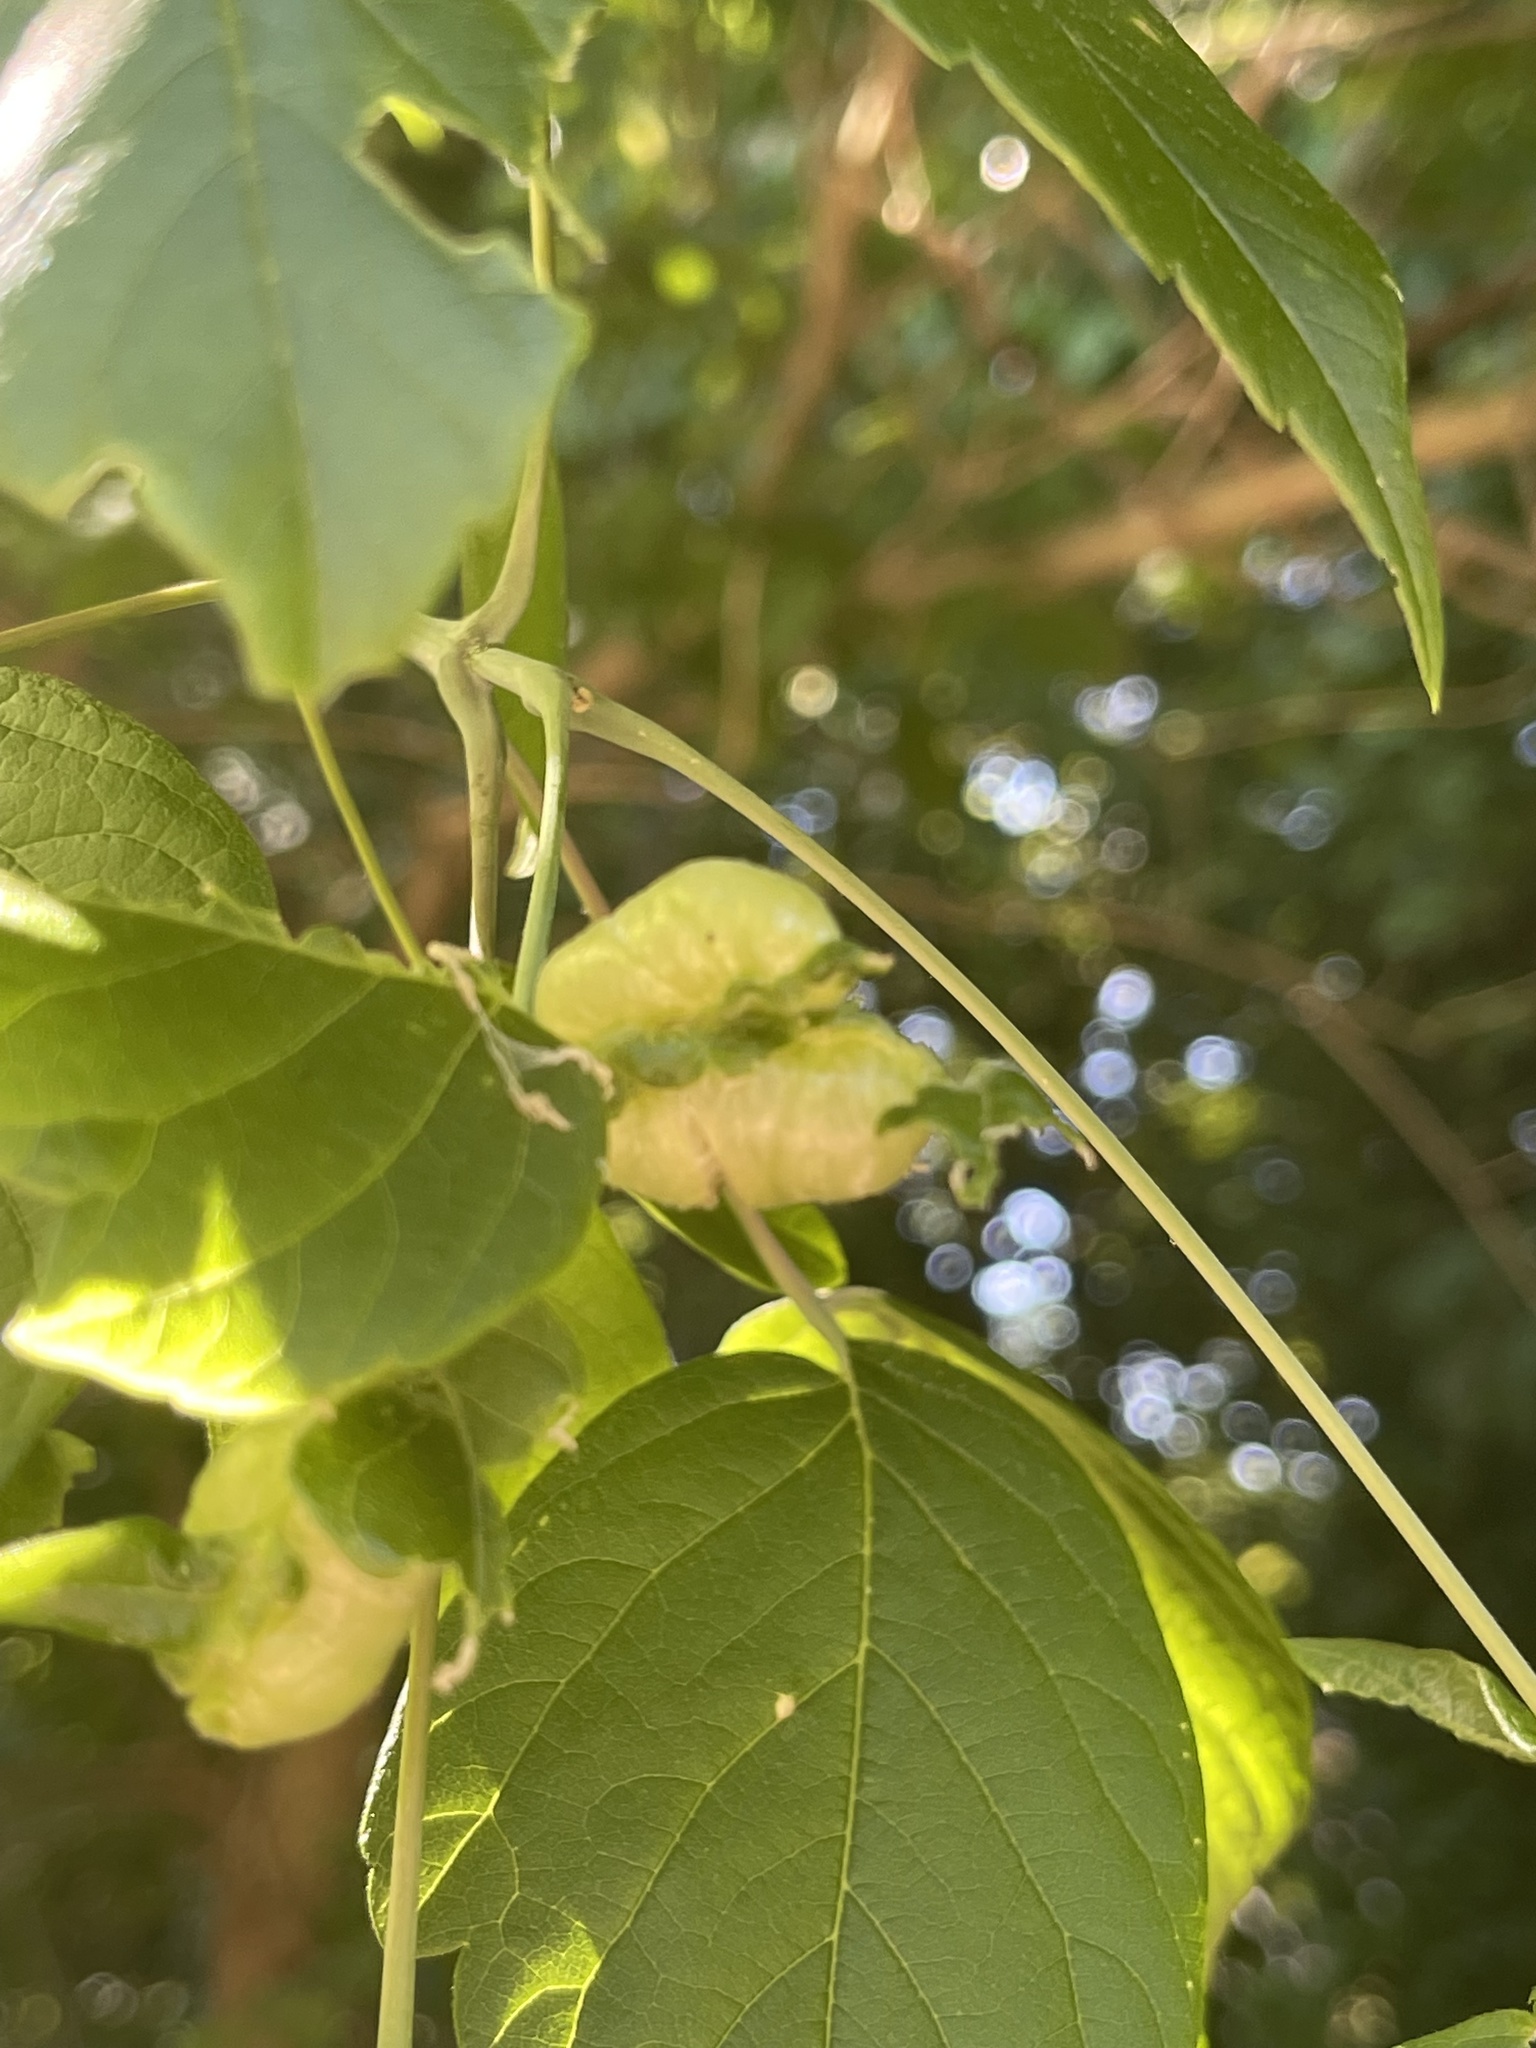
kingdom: Animalia
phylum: Arthropoda
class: Insecta
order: Diptera
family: Cecidomyiidae
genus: Contarinia
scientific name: Contarinia negundinis
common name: Boxelder budgall midge
